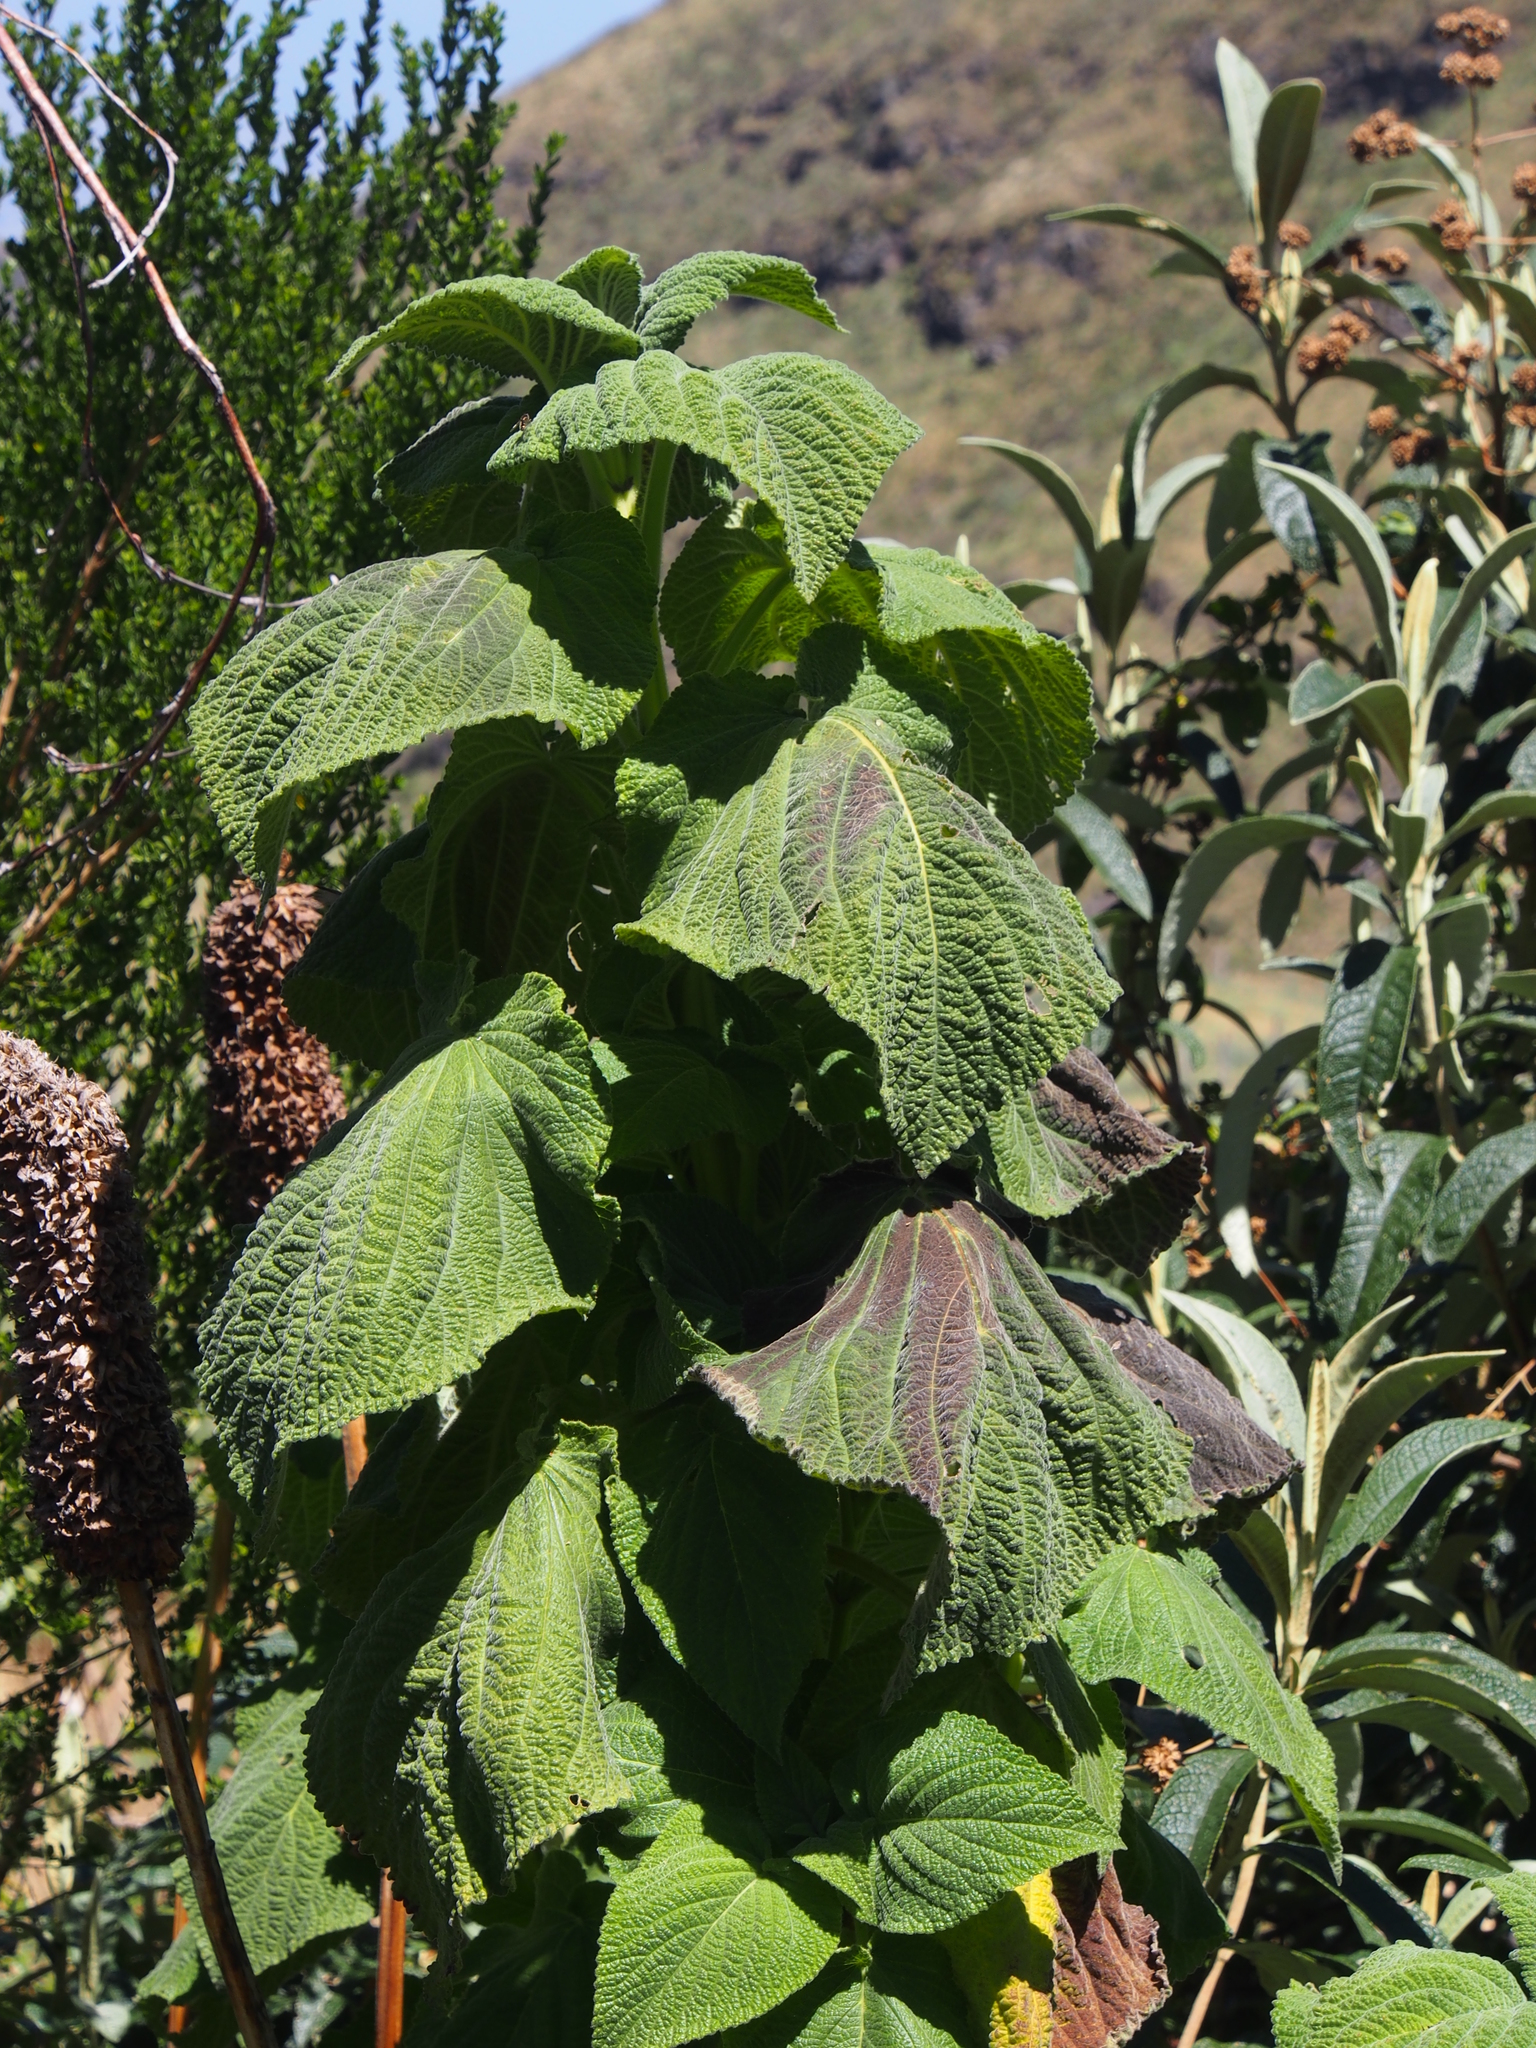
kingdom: Plantae
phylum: Tracheophyta
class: Magnoliopsida
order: Lamiales
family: Lamiaceae
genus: Salvia
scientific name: Salvia macrostachya
